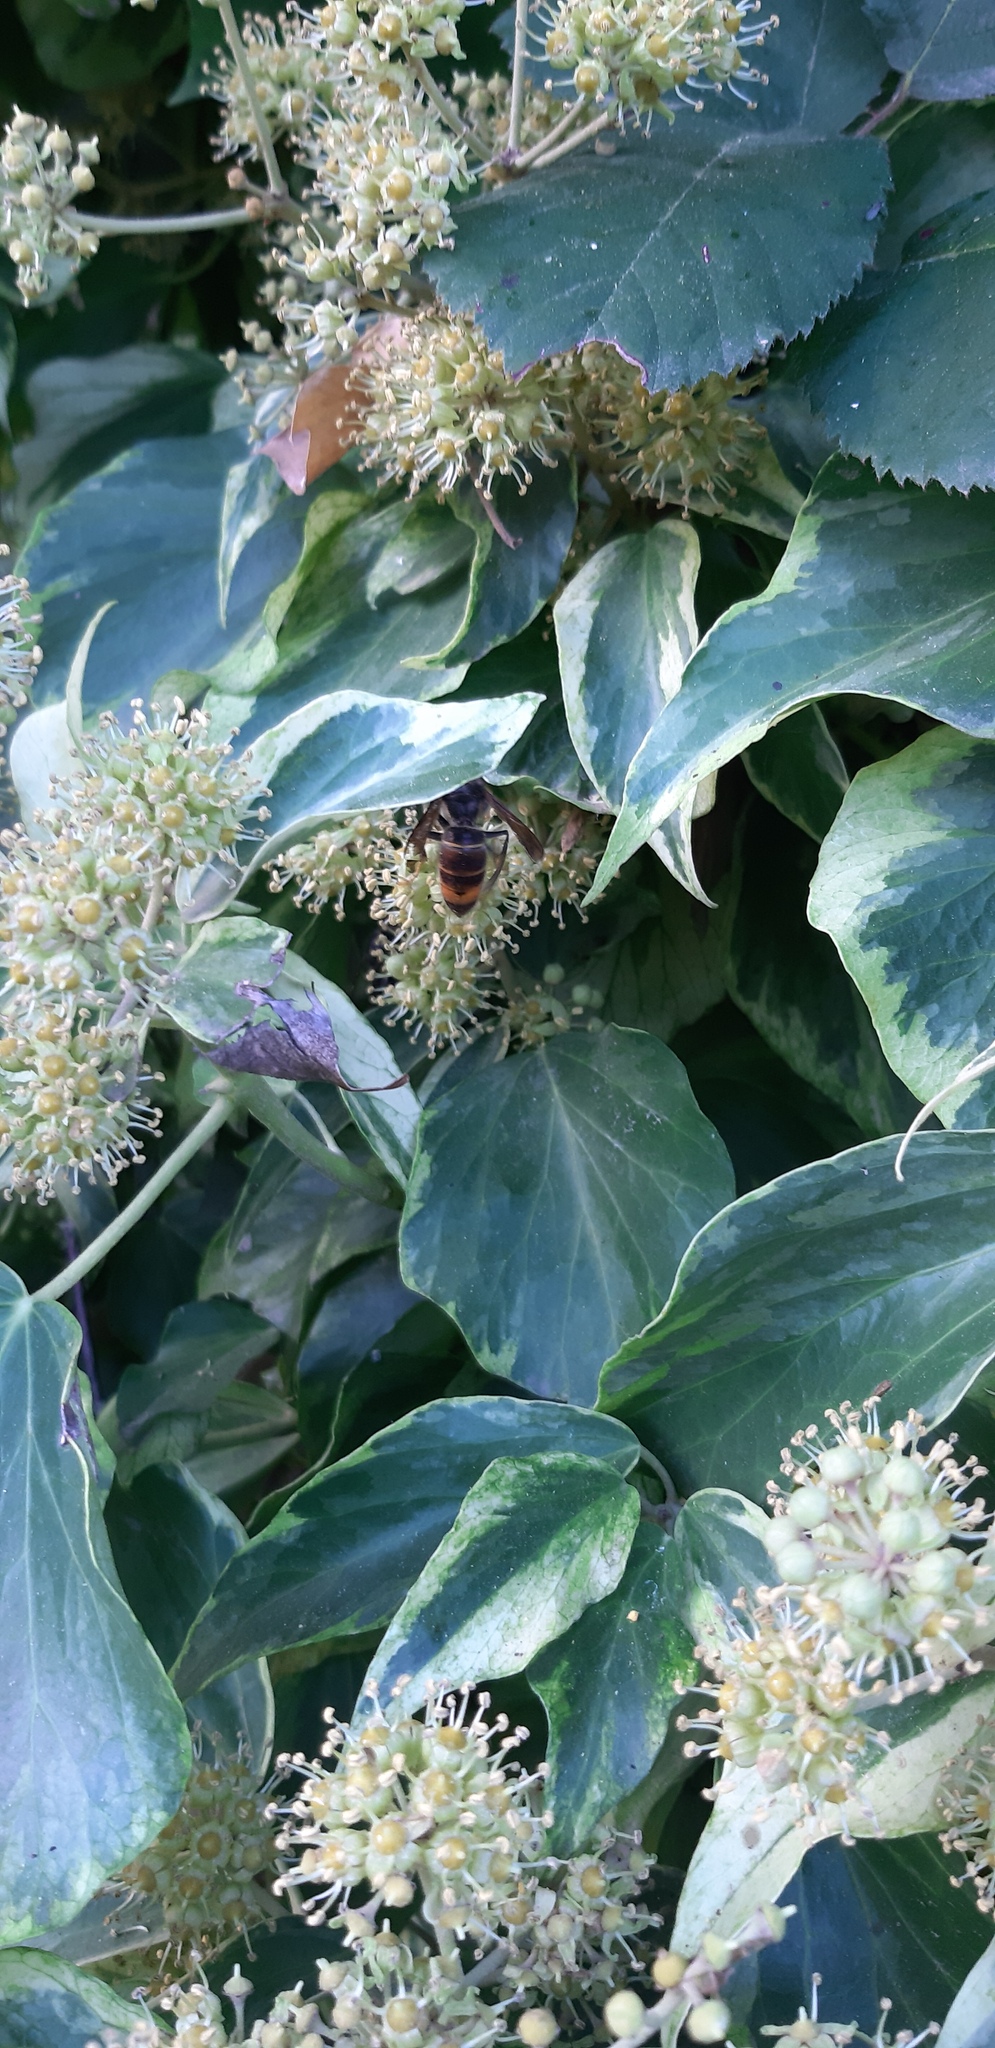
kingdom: Animalia
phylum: Arthropoda
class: Insecta
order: Hymenoptera
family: Vespidae
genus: Vespa
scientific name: Vespa velutina
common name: Asian hornet
